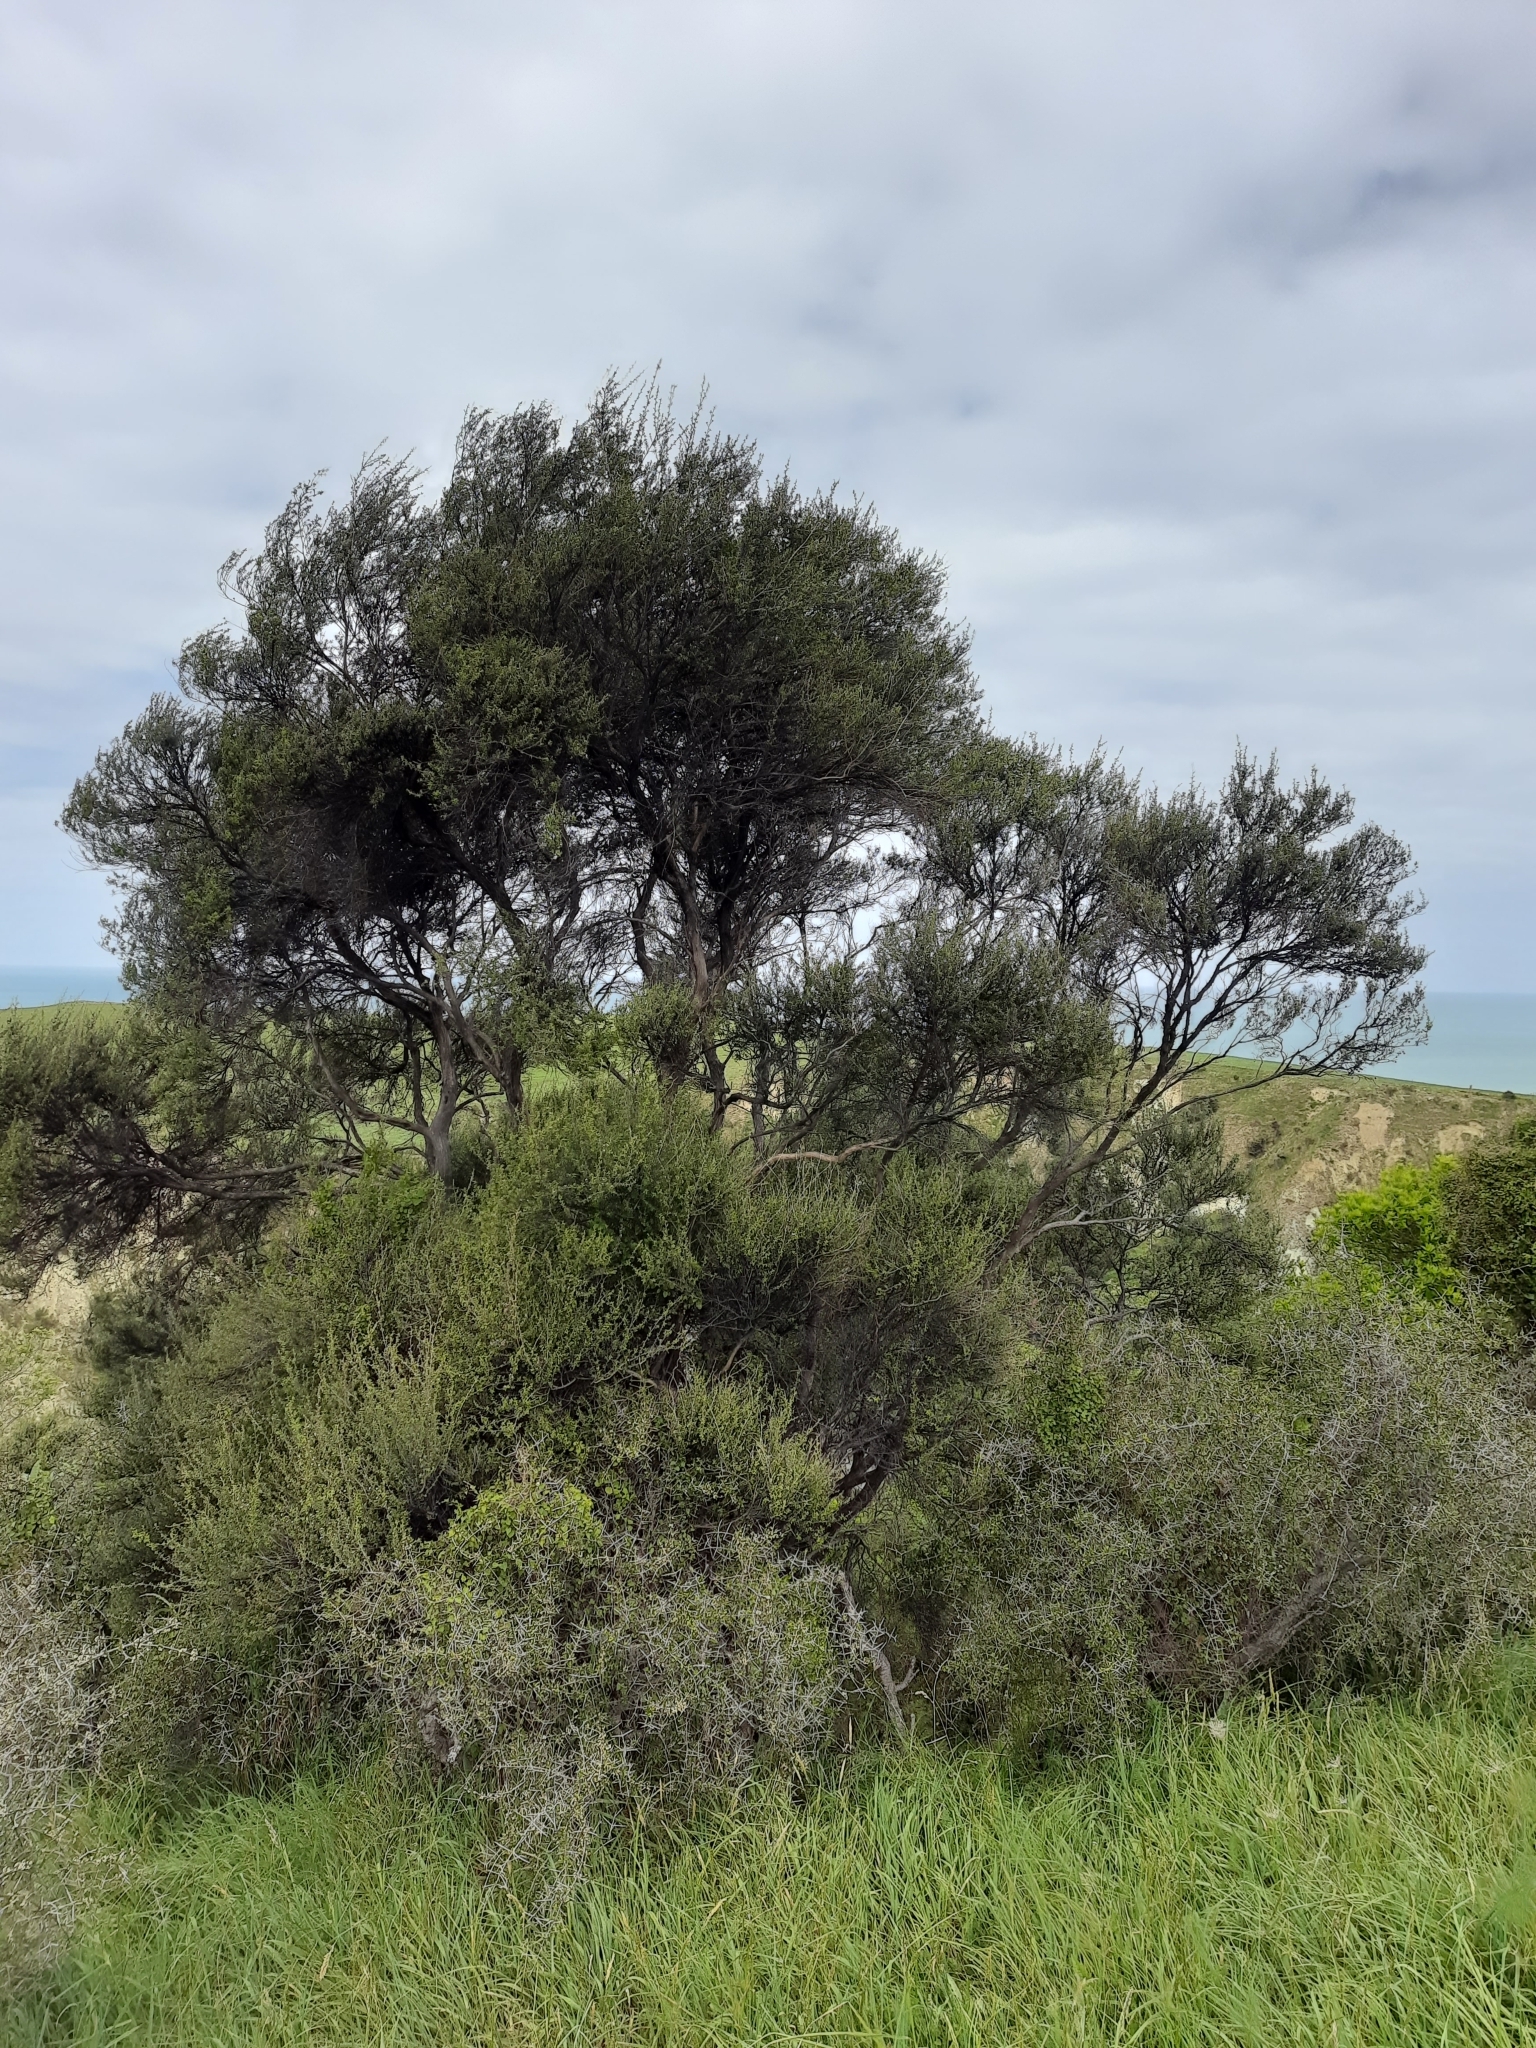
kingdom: Plantae
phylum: Tracheophyta
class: Magnoliopsida
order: Myrtales
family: Myrtaceae
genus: Leptospermum
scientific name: Leptospermum scoparium
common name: Broom tea-tree
